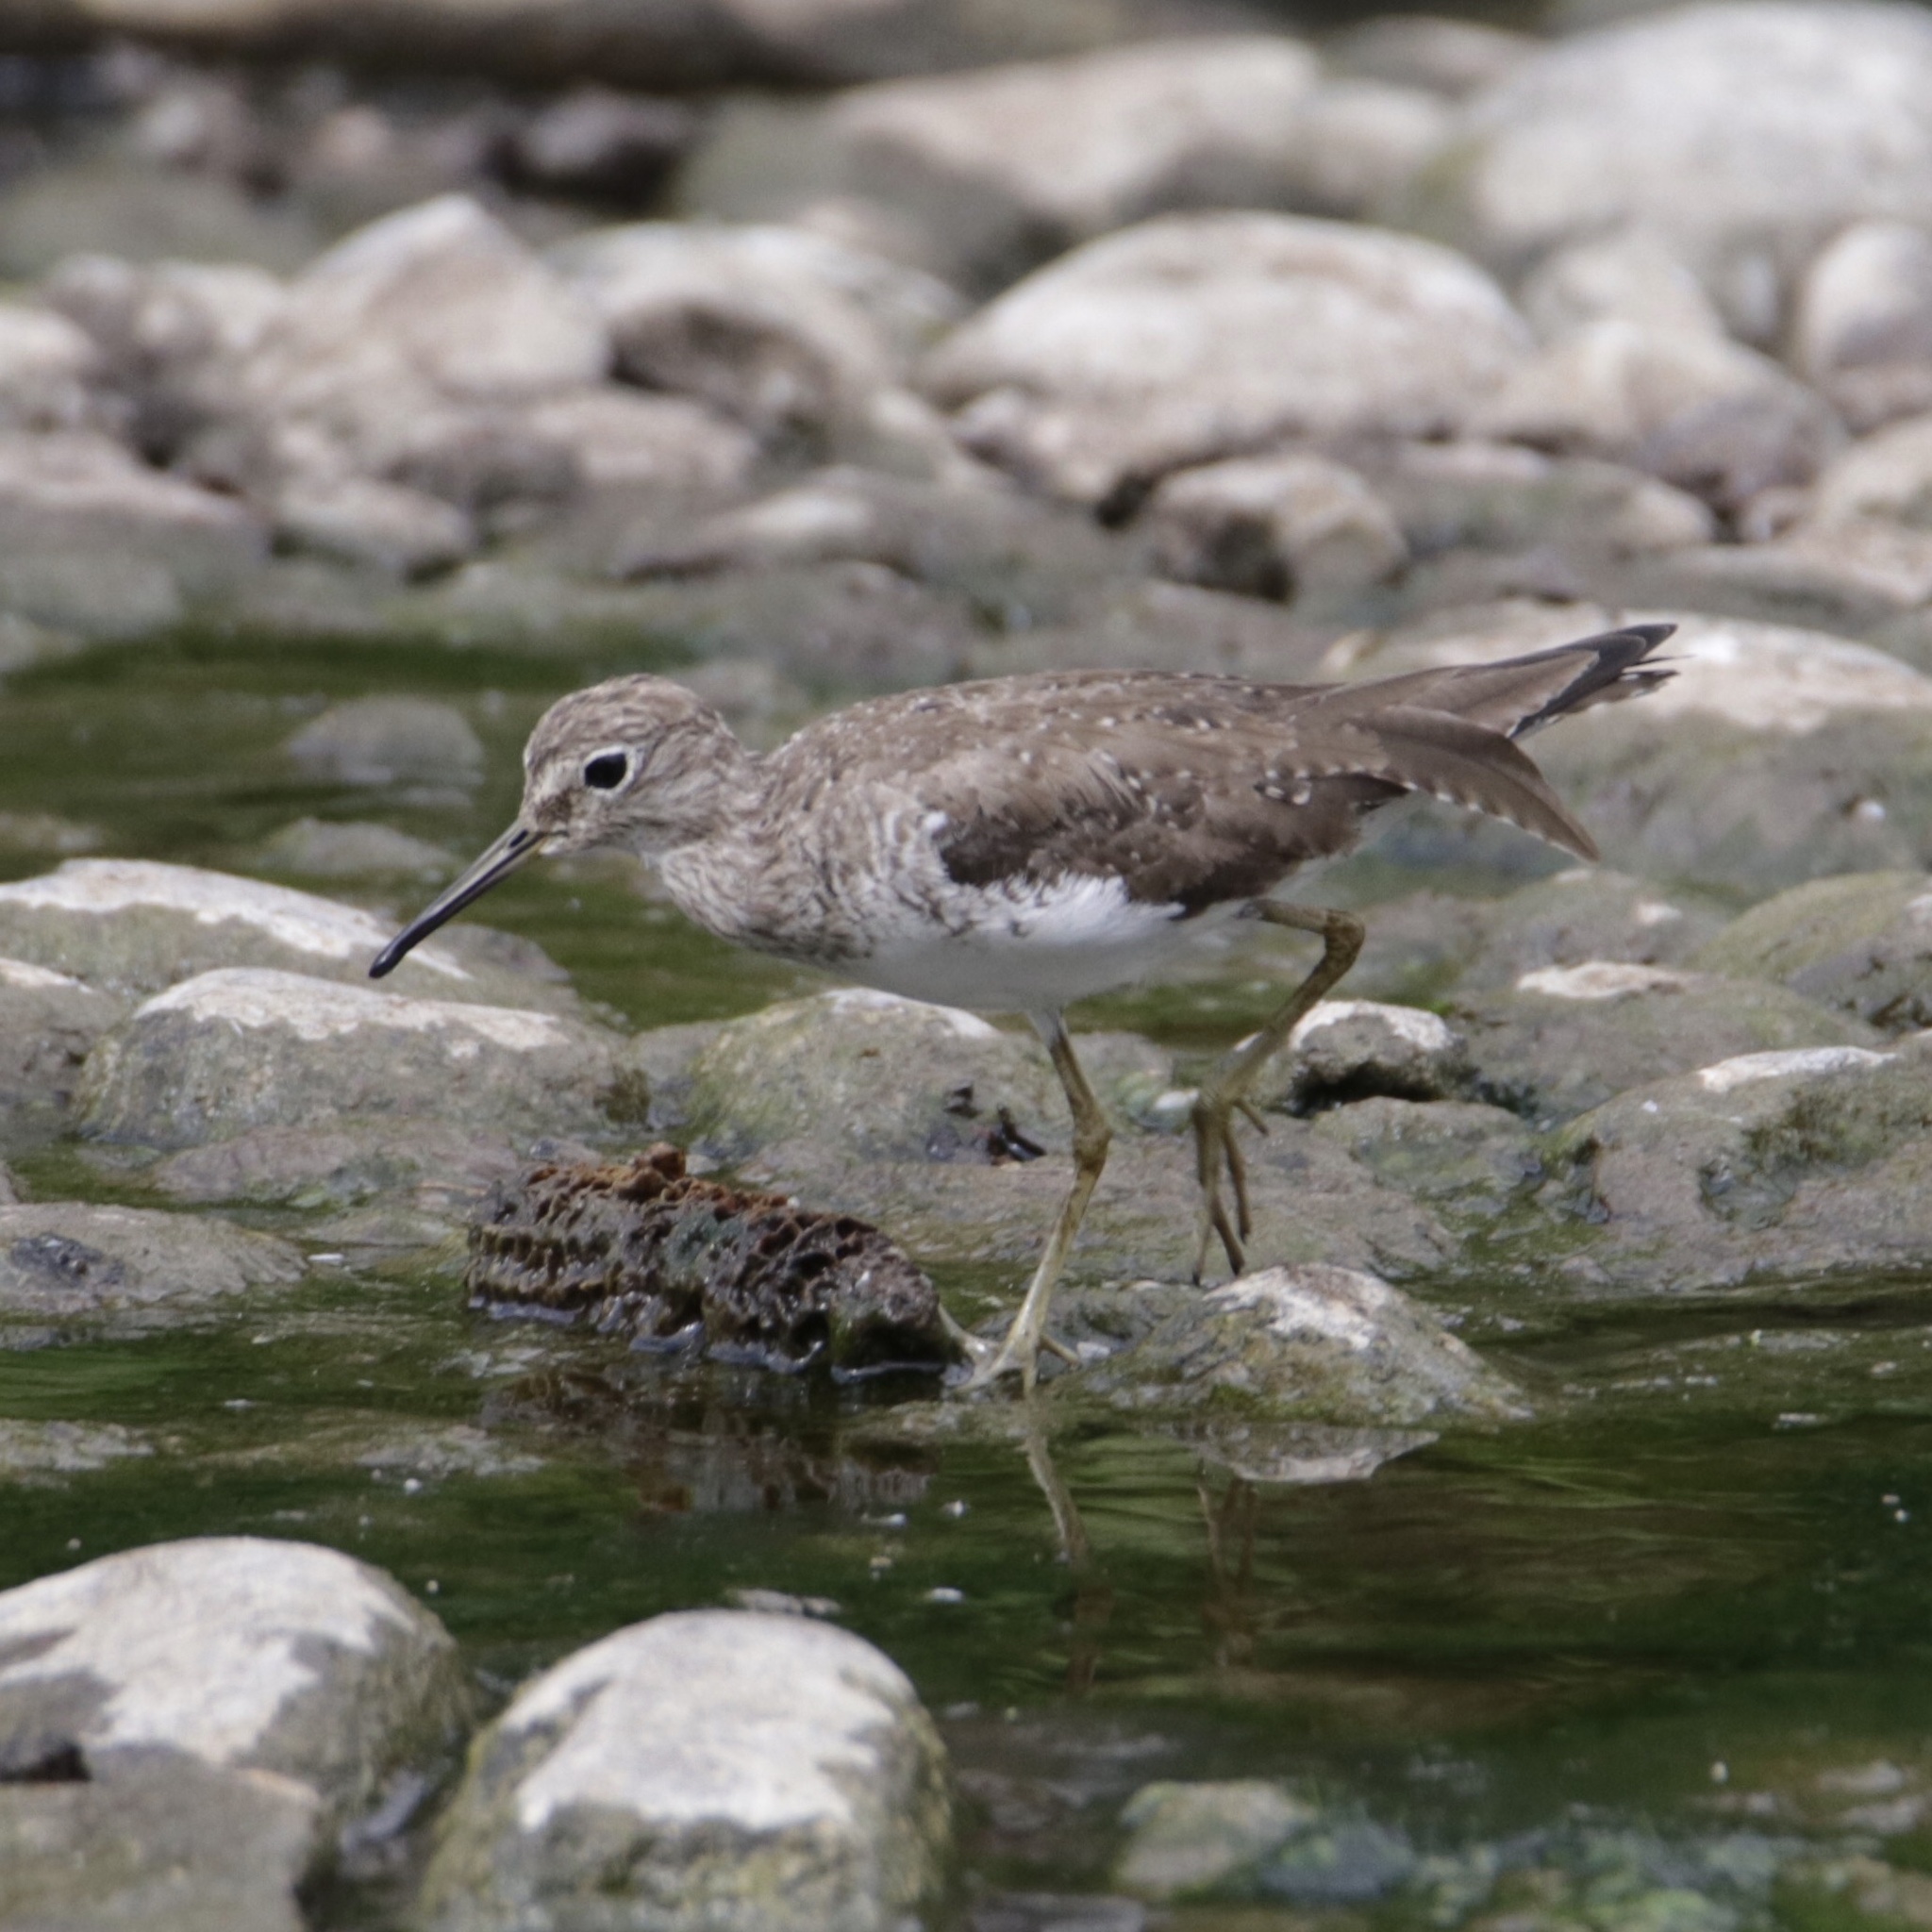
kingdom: Animalia
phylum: Chordata
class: Aves
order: Charadriiformes
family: Scolopacidae
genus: Tringa
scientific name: Tringa solitaria
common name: Solitary sandpiper
